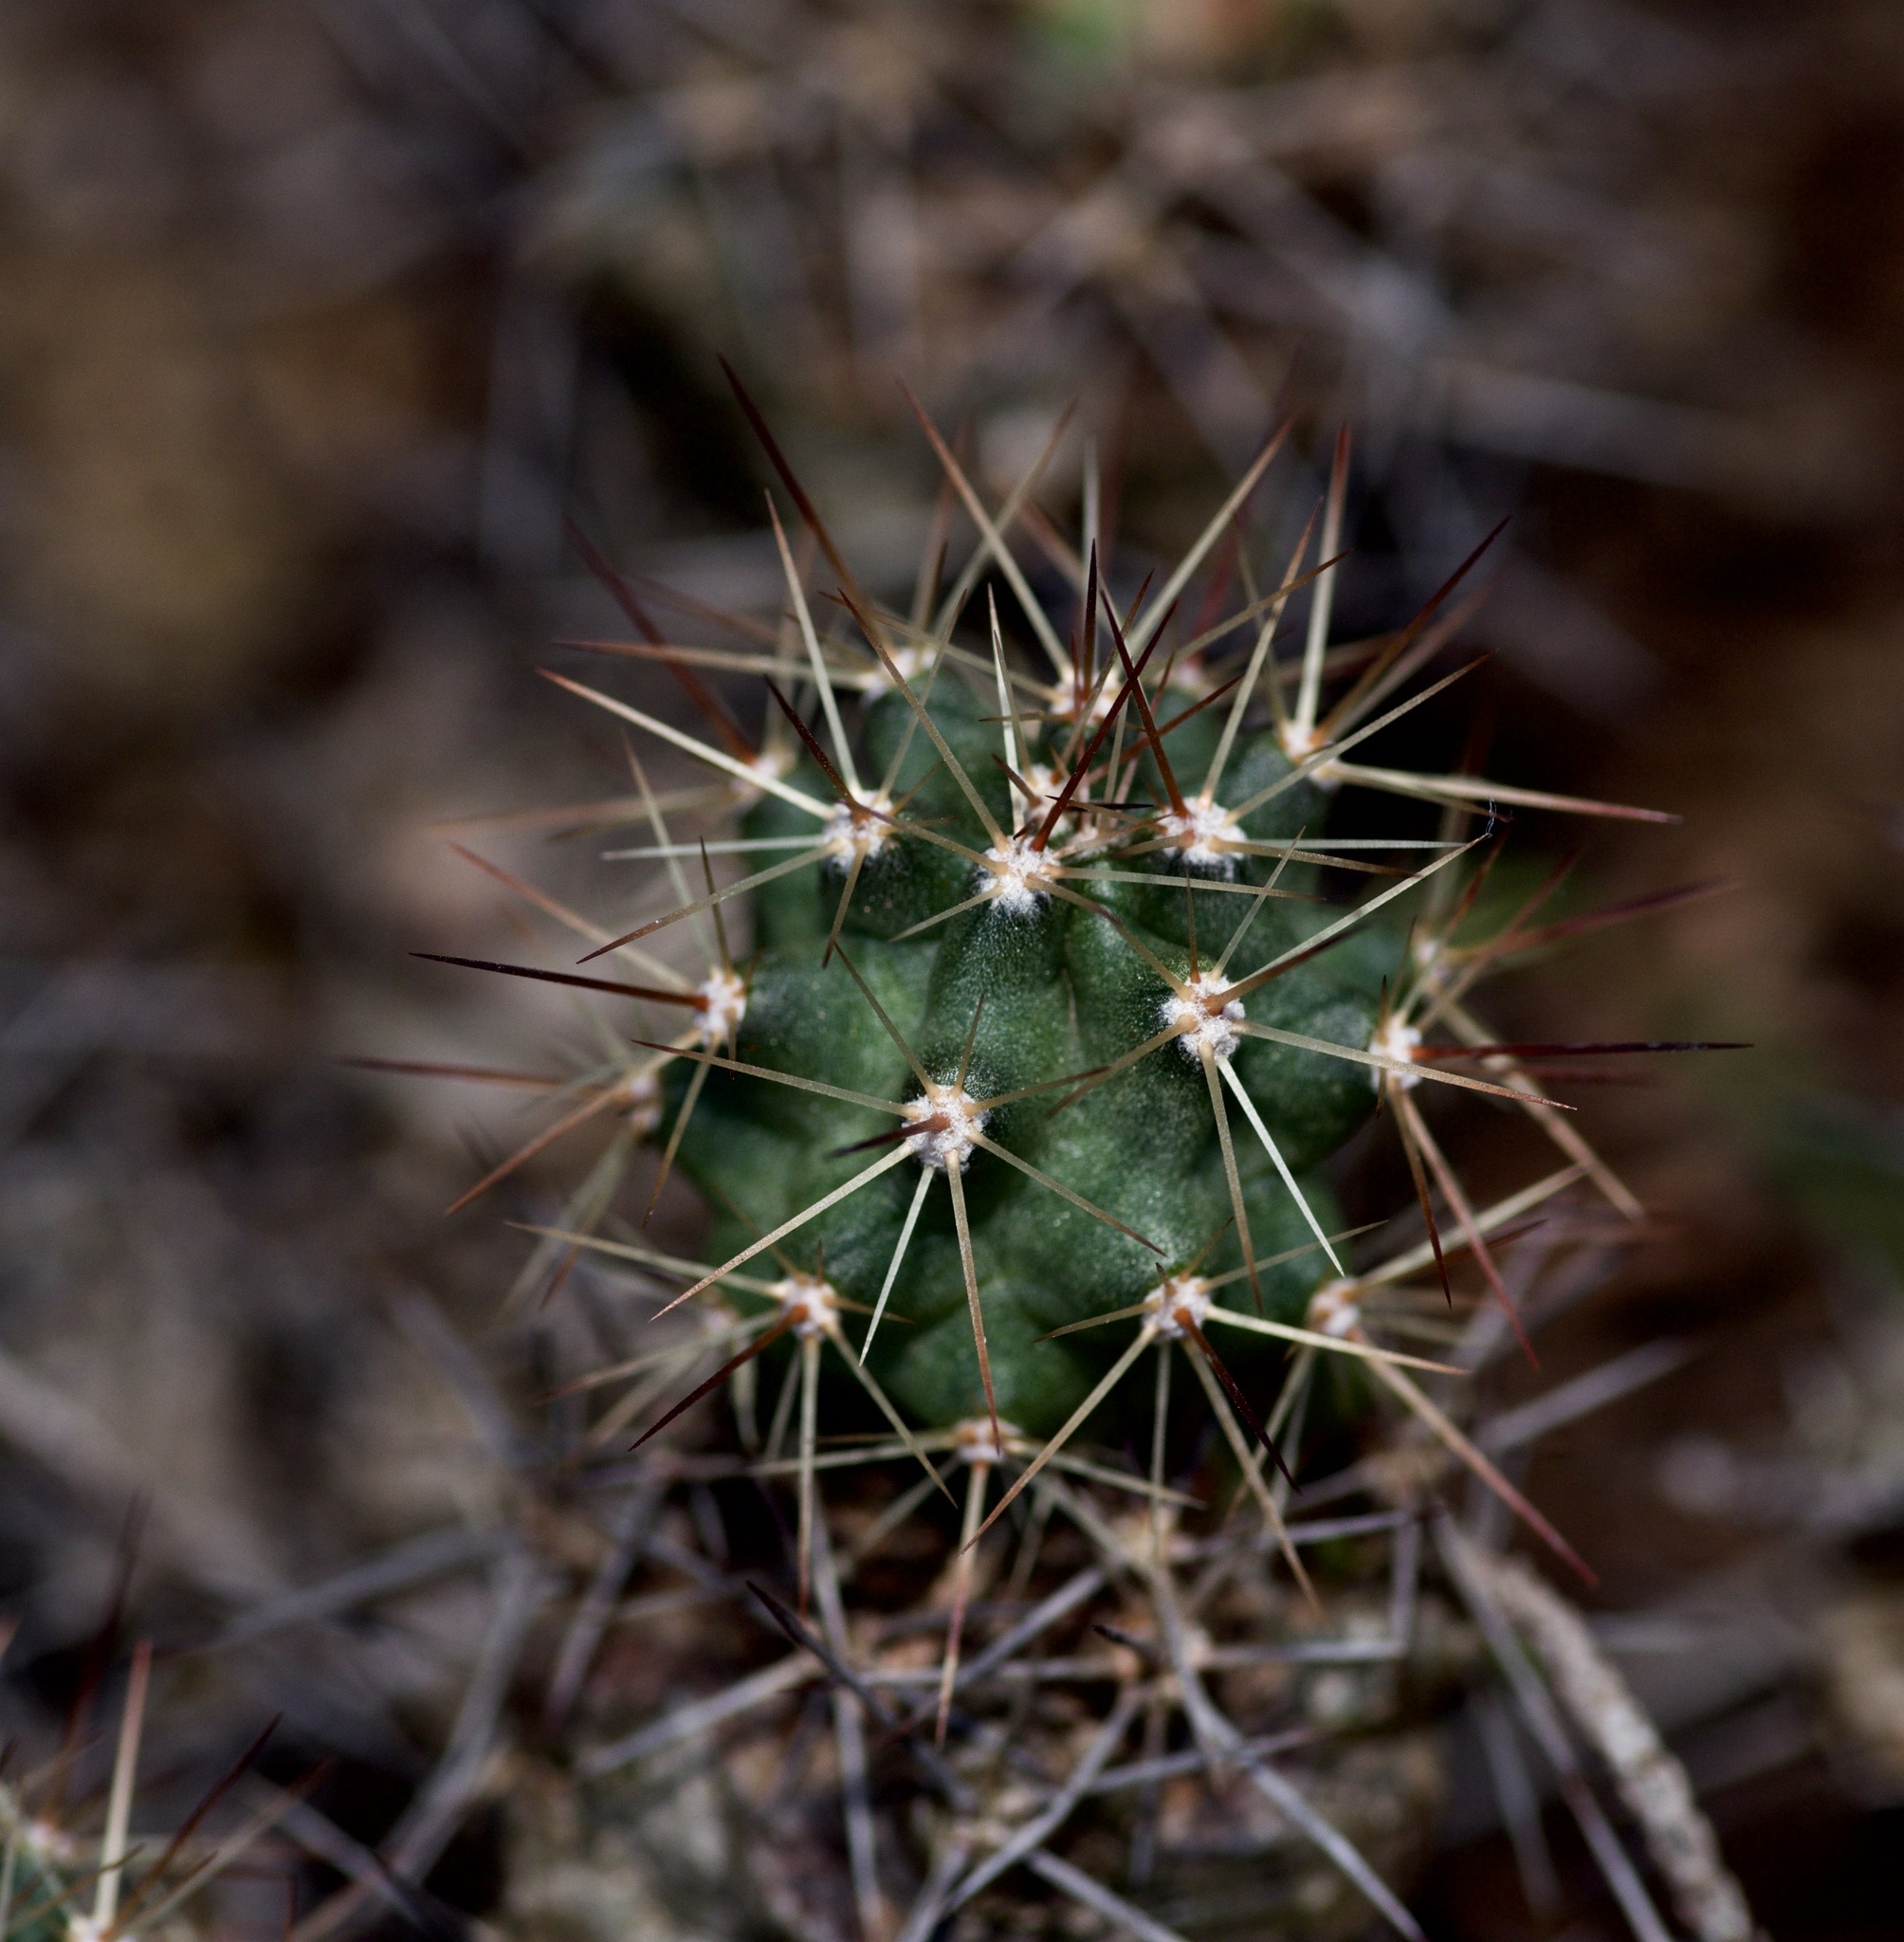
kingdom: Plantae
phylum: Tracheophyta
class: Magnoliopsida
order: Caryophyllales
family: Cactaceae
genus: Echinocereus
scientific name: Echinocereus coccineus
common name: Scarlet hedgehog cactus
